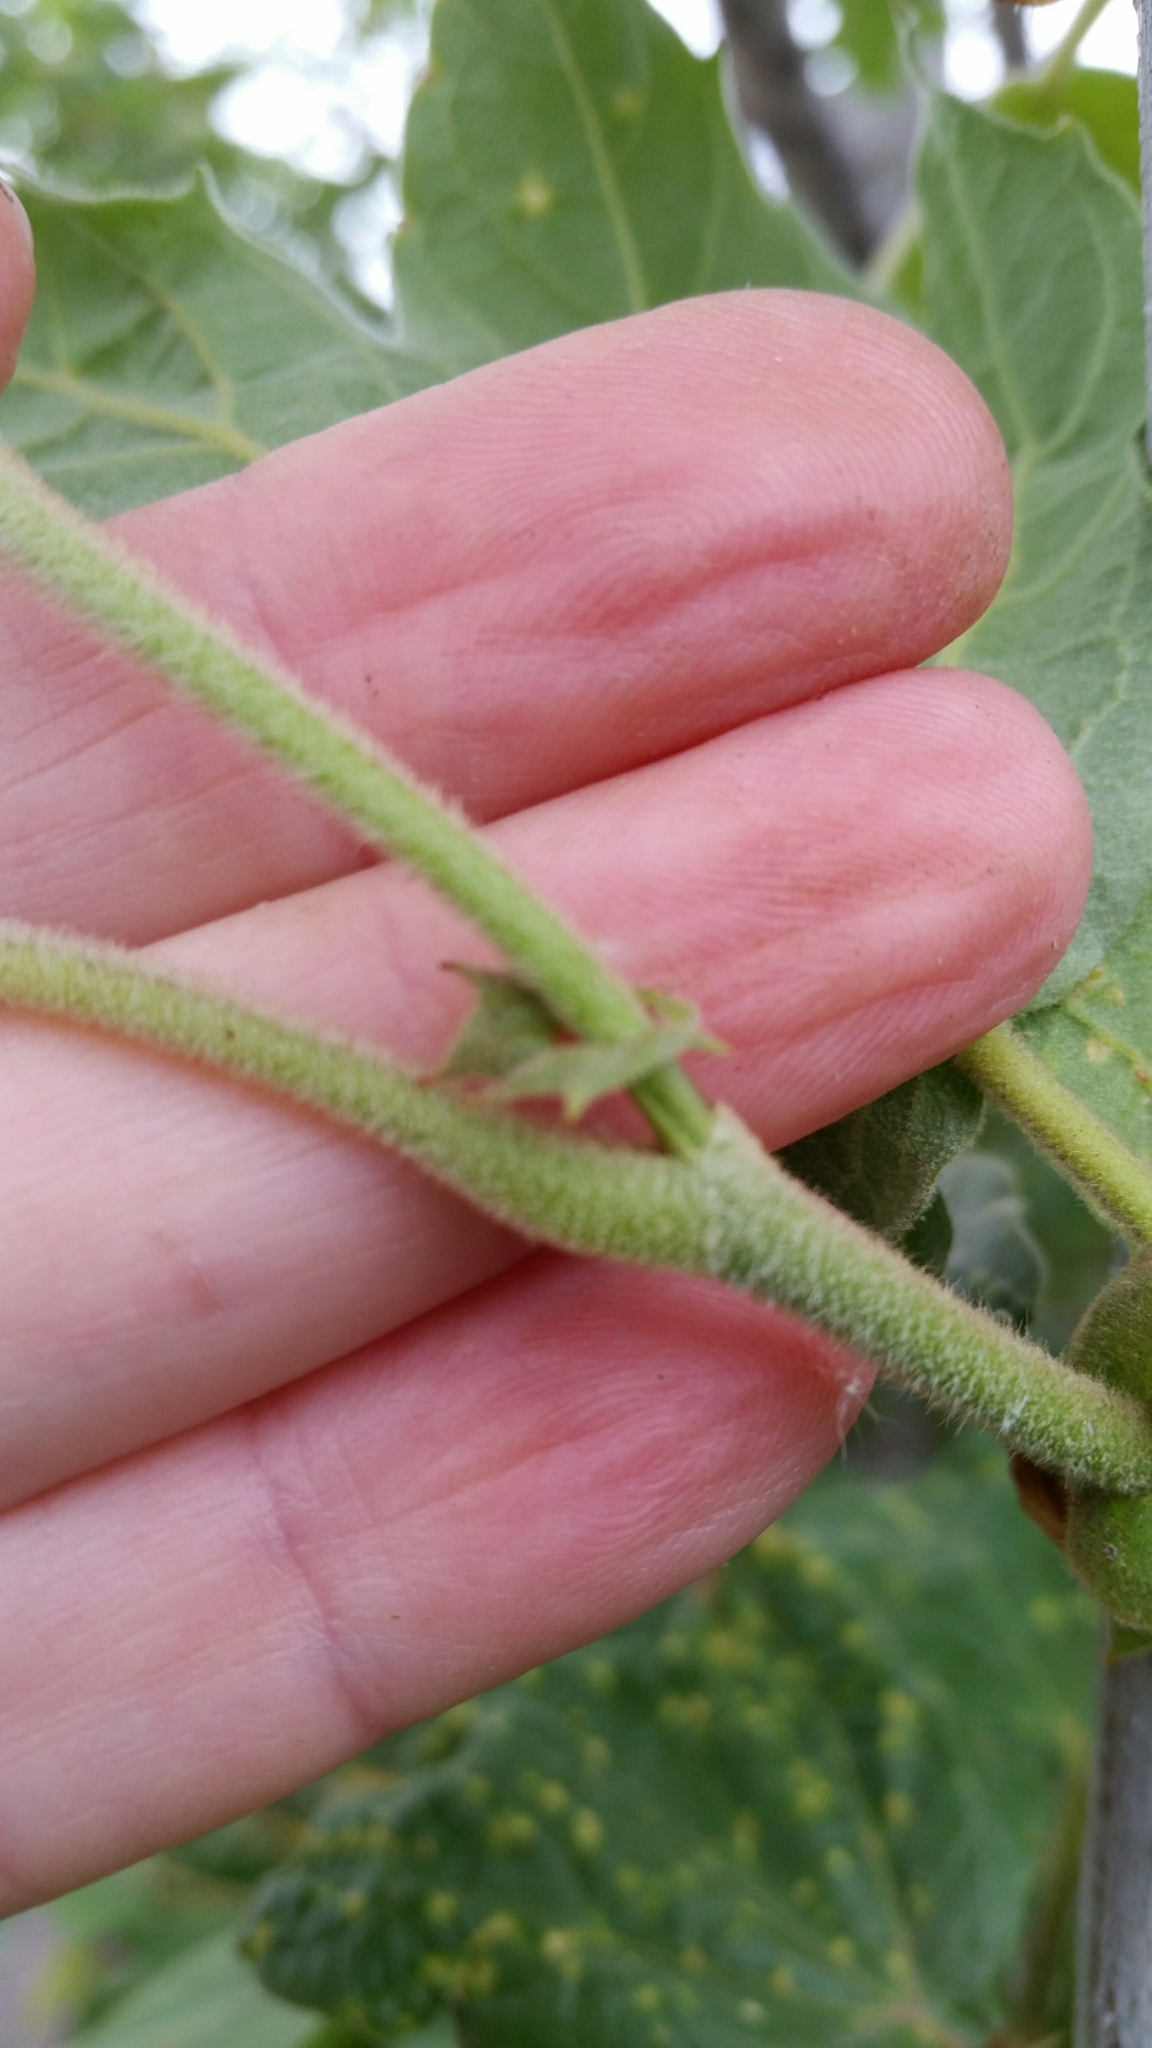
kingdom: Plantae
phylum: Tracheophyta
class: Magnoliopsida
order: Proteales
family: Platanaceae
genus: Platanus
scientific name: Platanus racemosa
